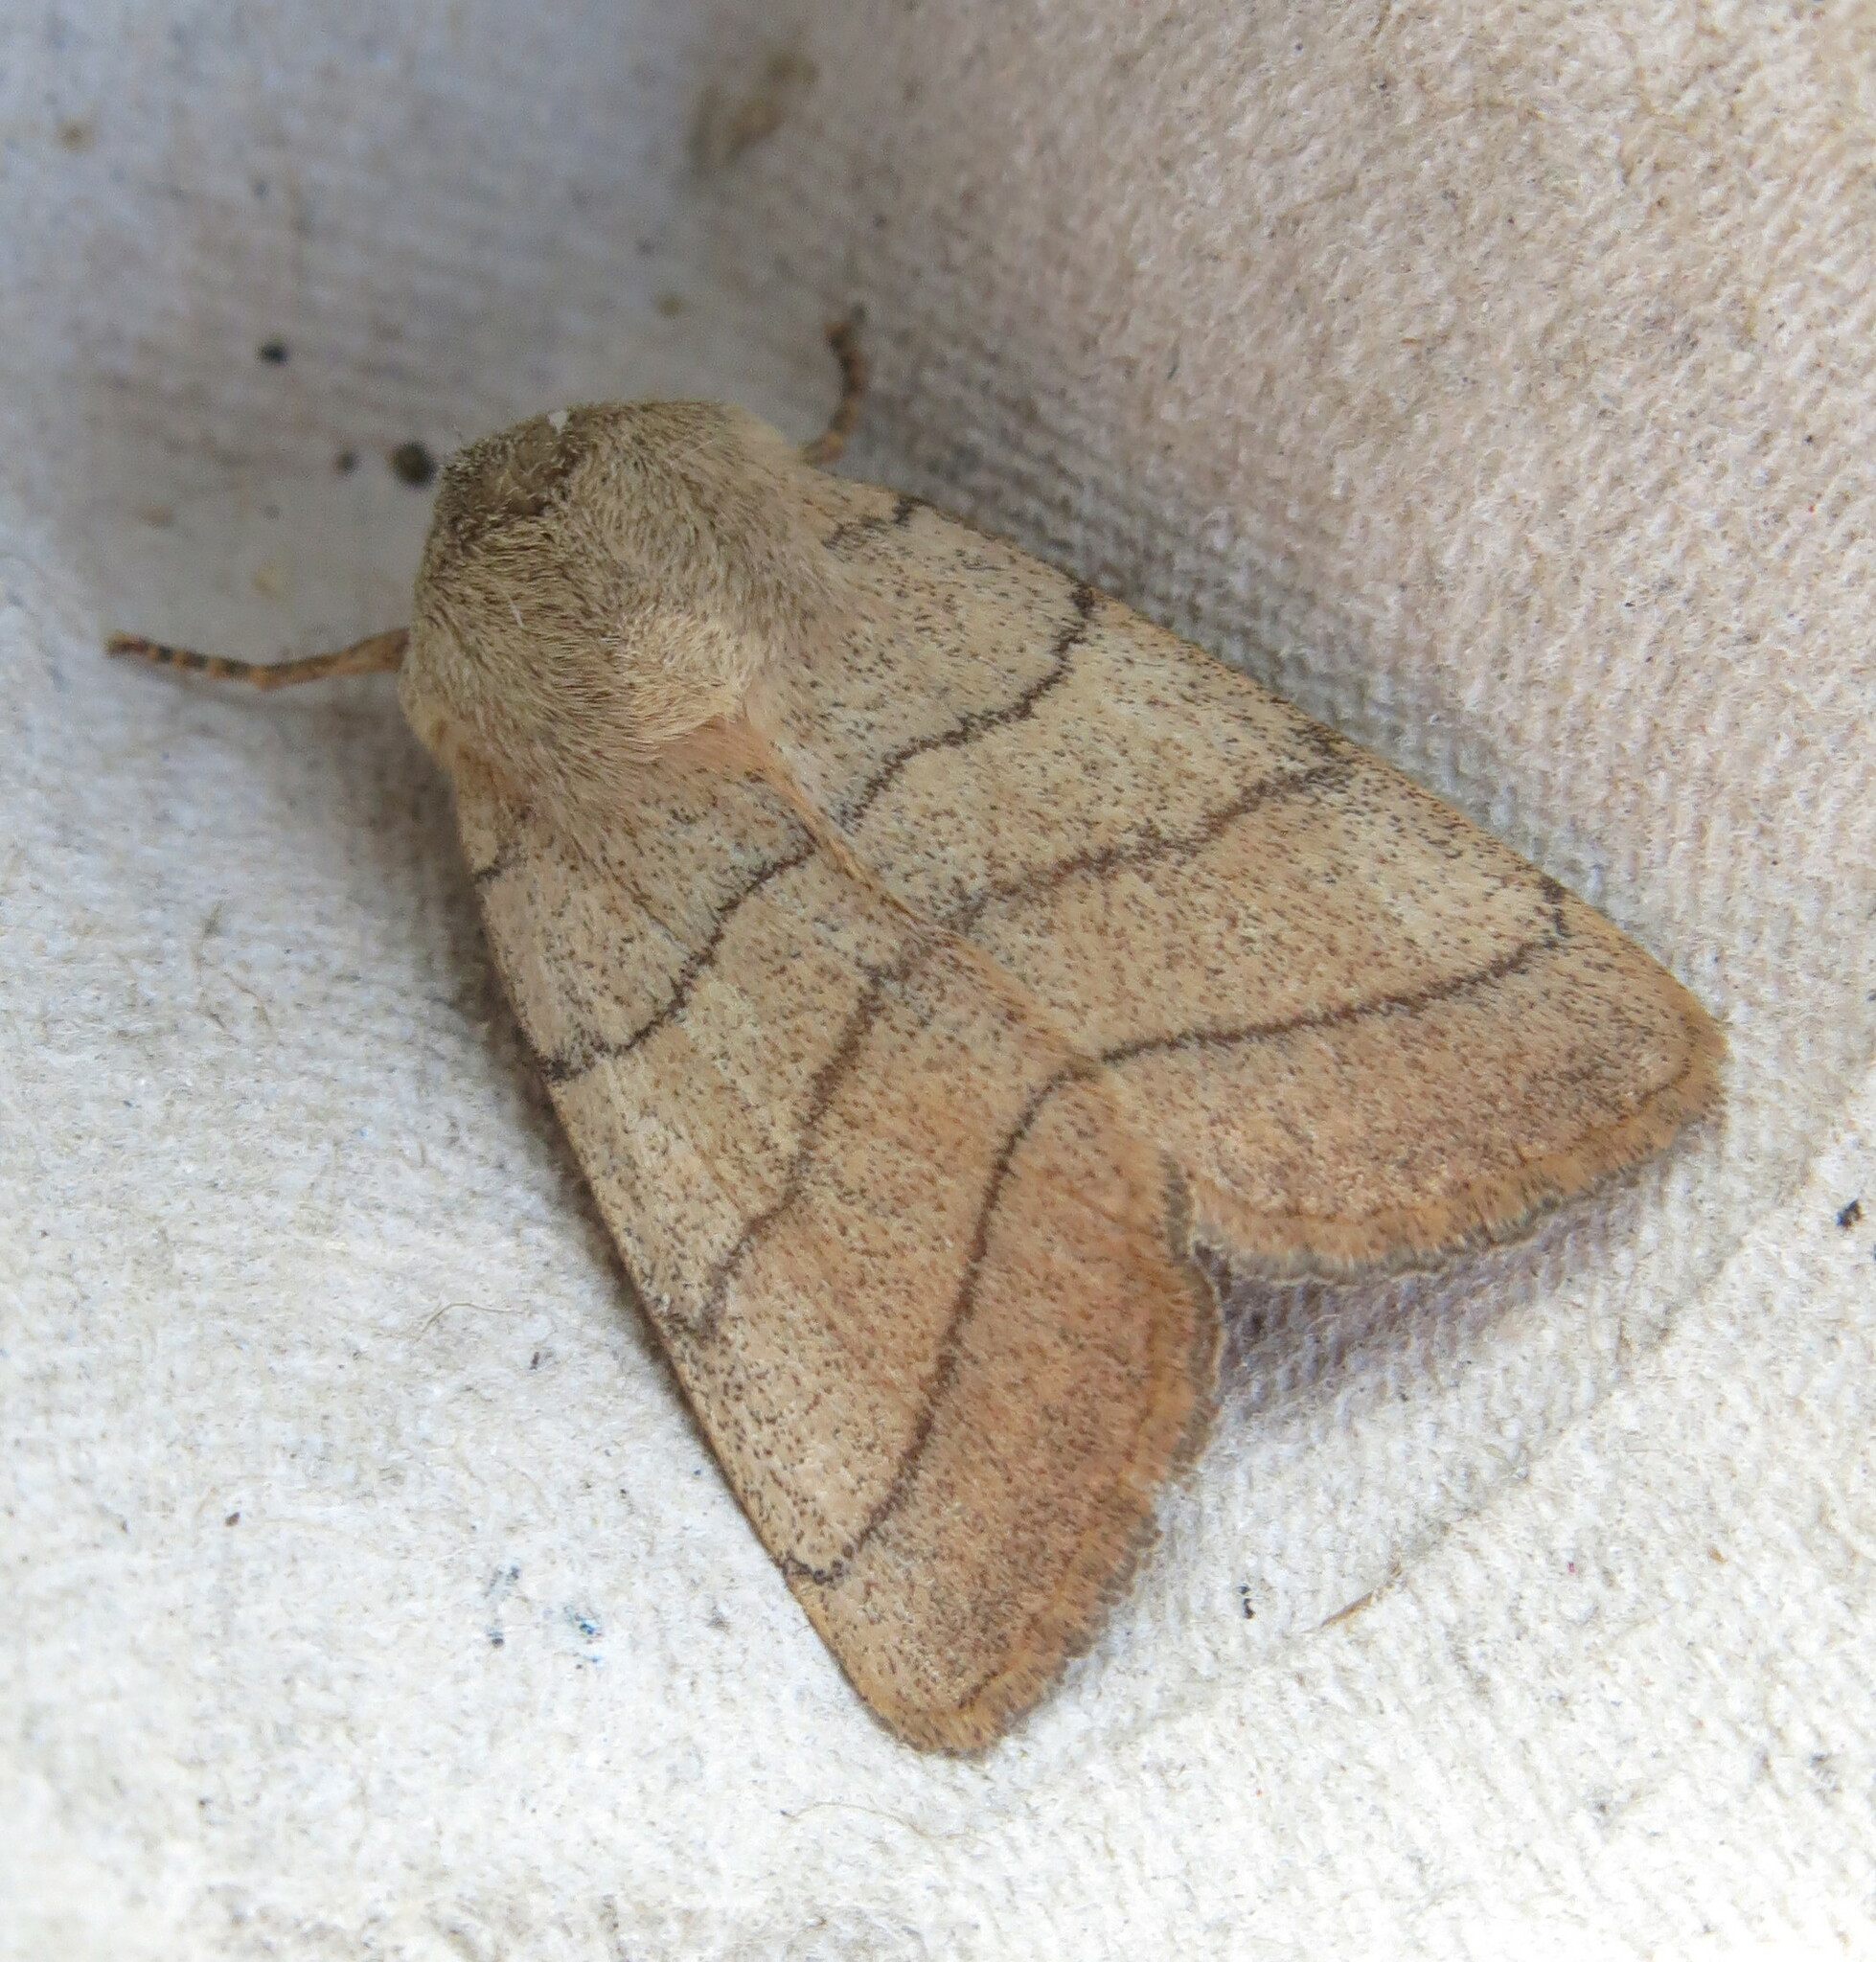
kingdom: Animalia
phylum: Arthropoda
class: Insecta
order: Lepidoptera
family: Noctuidae
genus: Charanyca
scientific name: Charanyca trigrammica
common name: Treble lines
